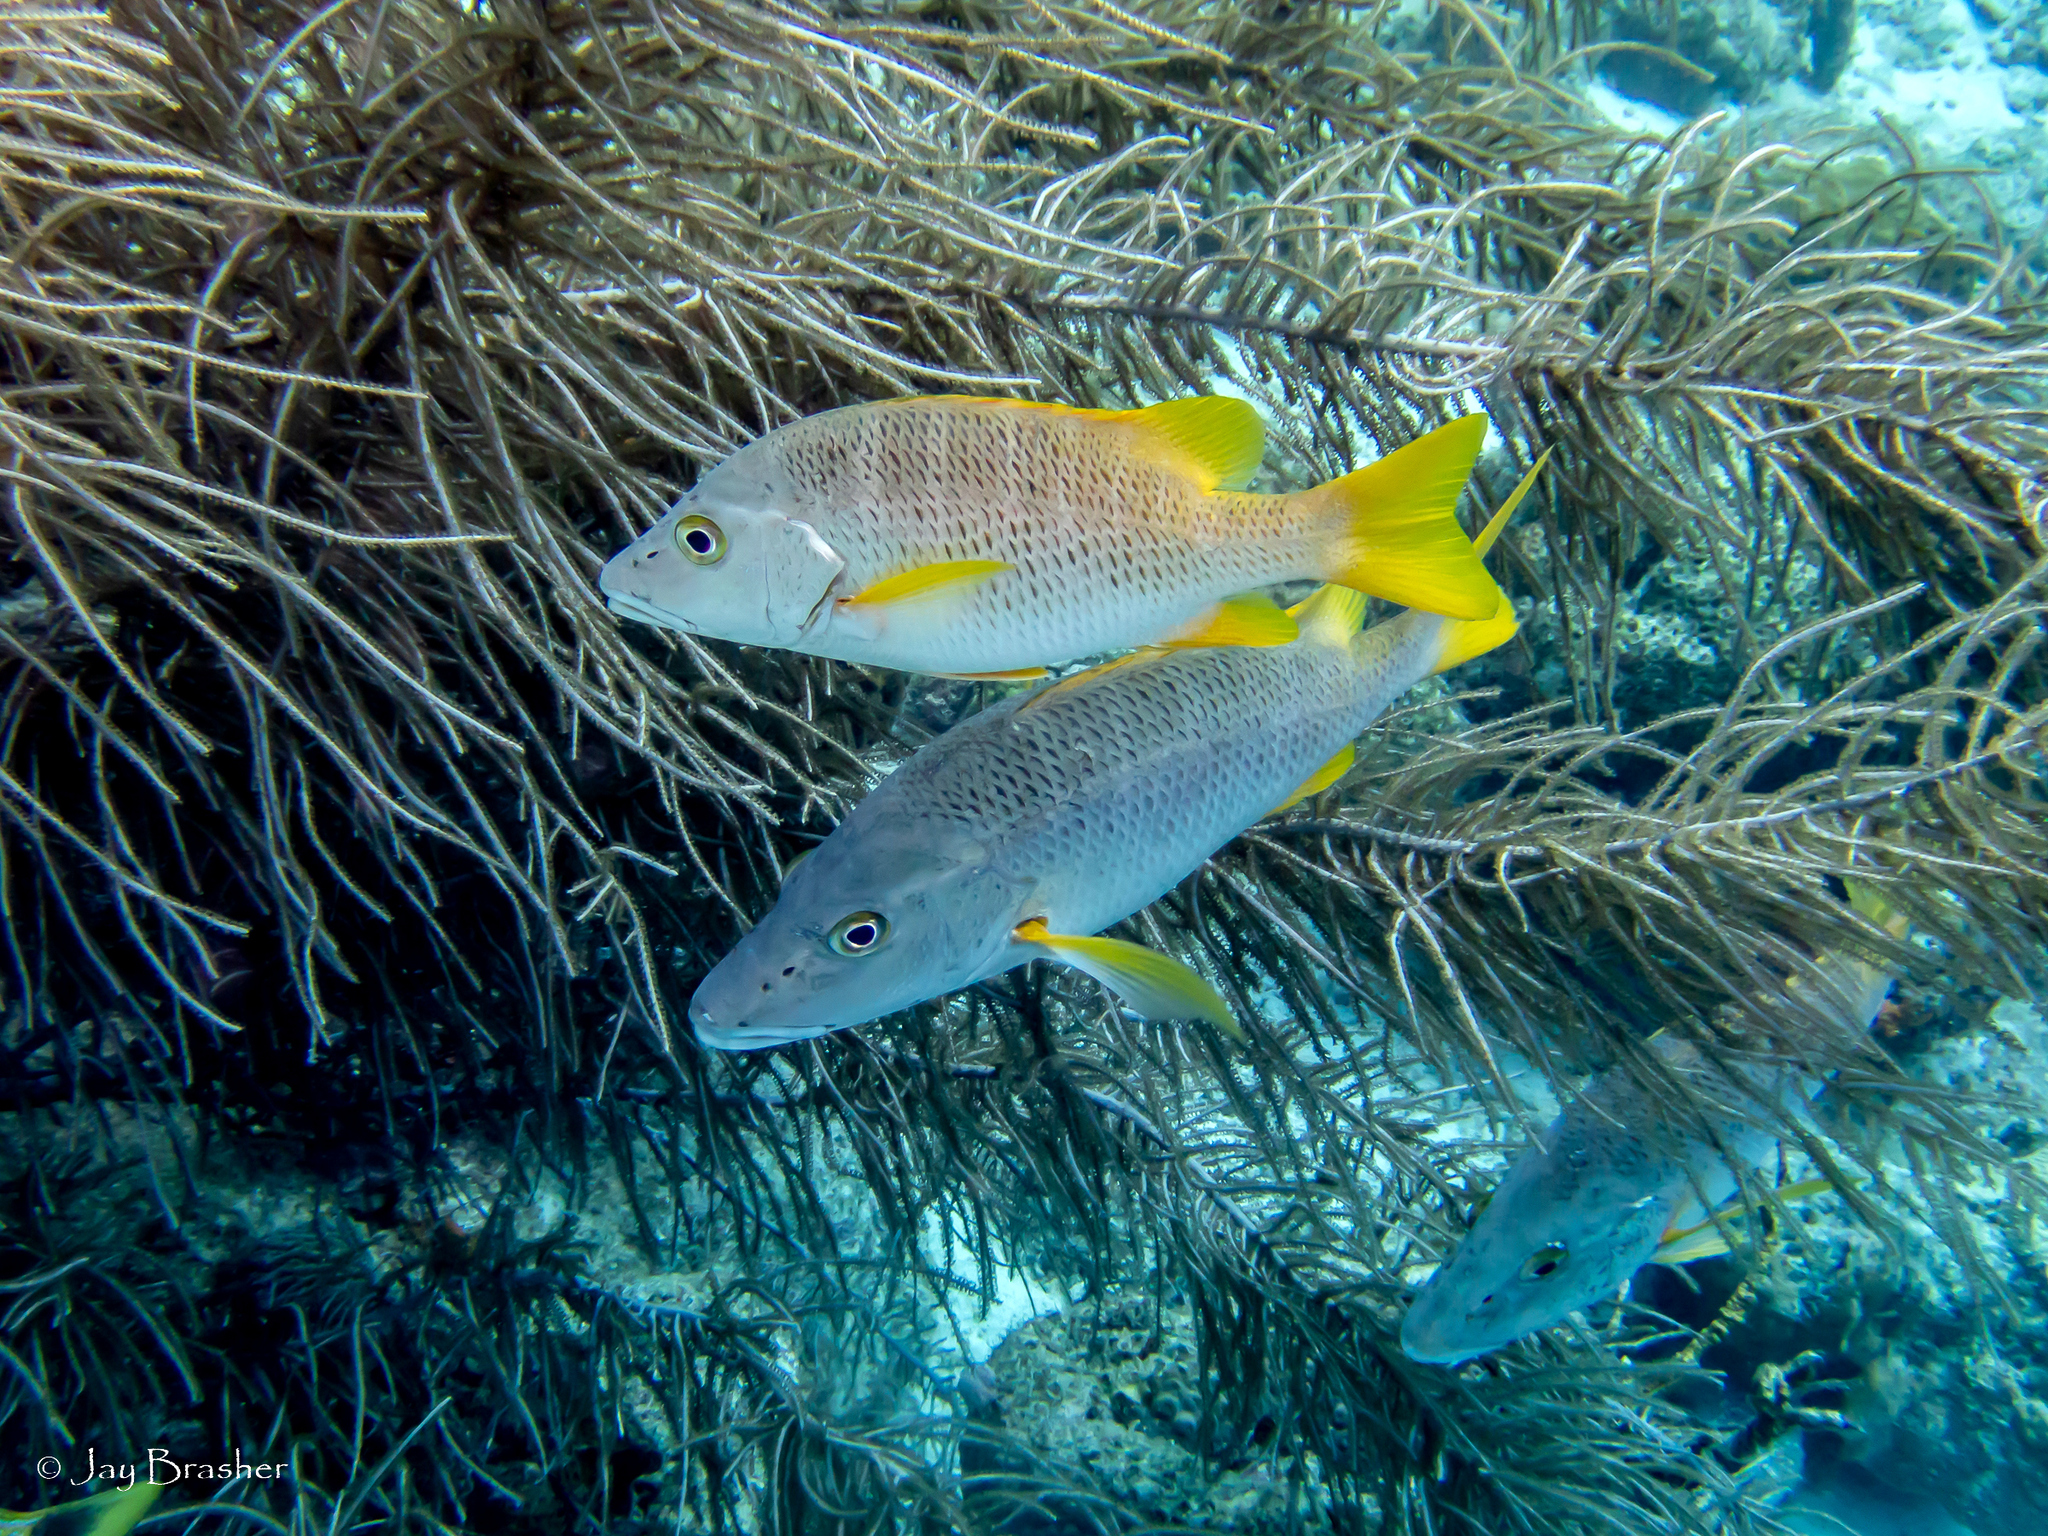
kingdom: Animalia
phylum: Chordata
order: Perciformes
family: Lutjanidae
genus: Lutjanus
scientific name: Lutjanus apodus
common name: Schoolmaster
